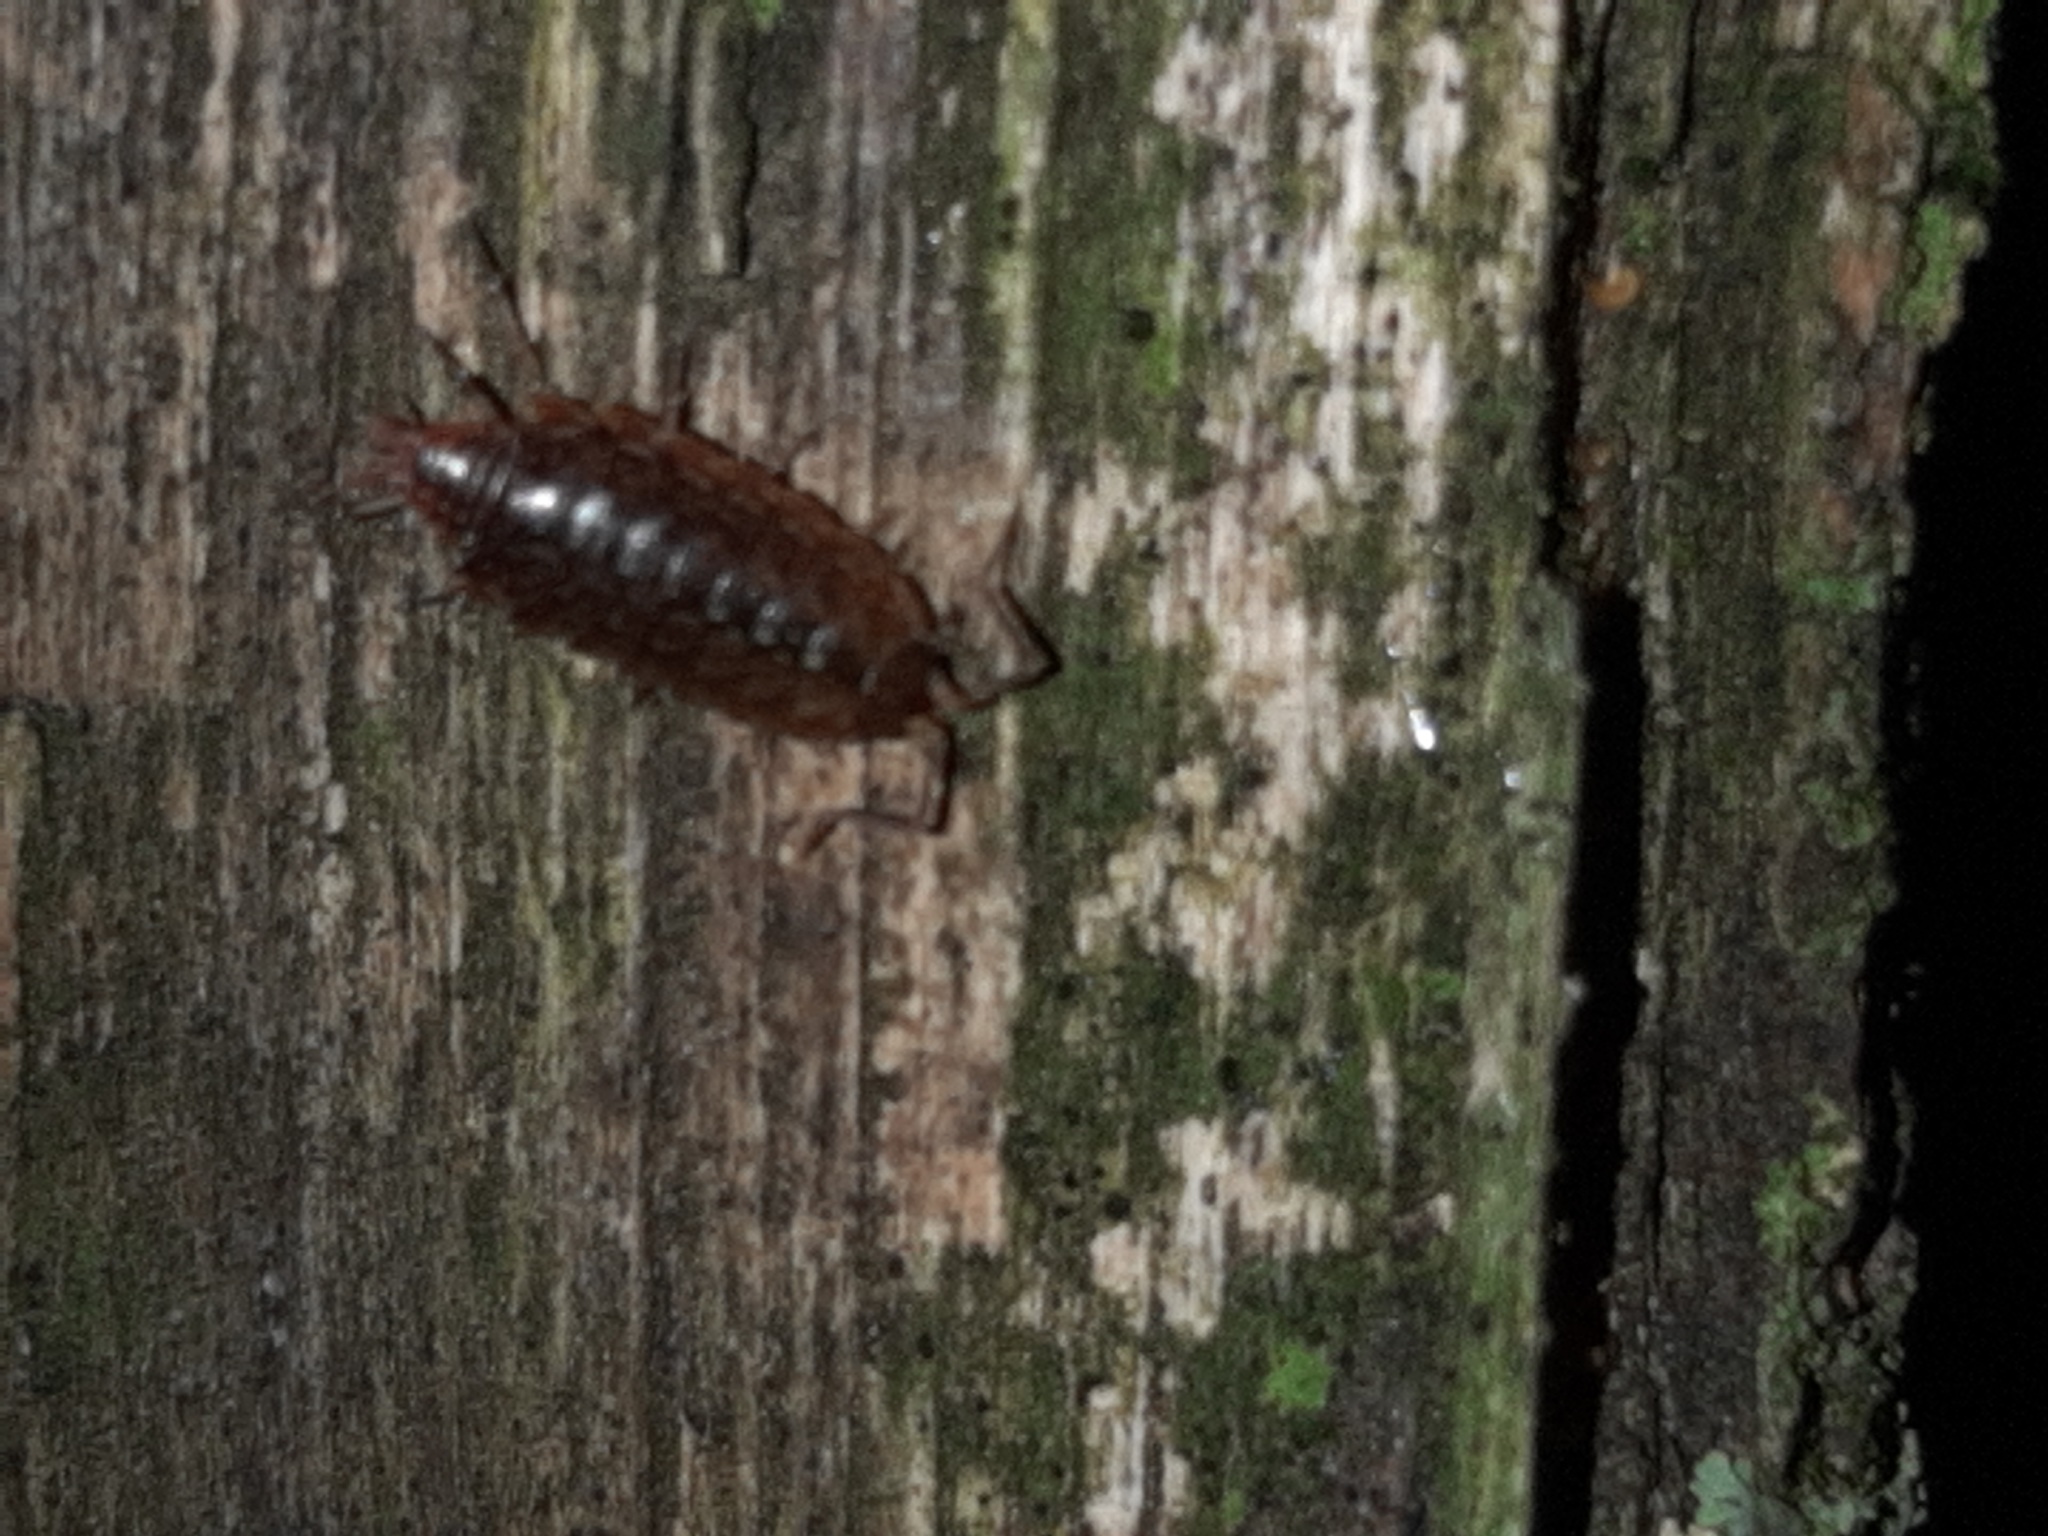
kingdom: Animalia
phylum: Arthropoda
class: Malacostraca
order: Isopoda
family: Philosciidae
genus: Philoscia
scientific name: Philoscia affinis
